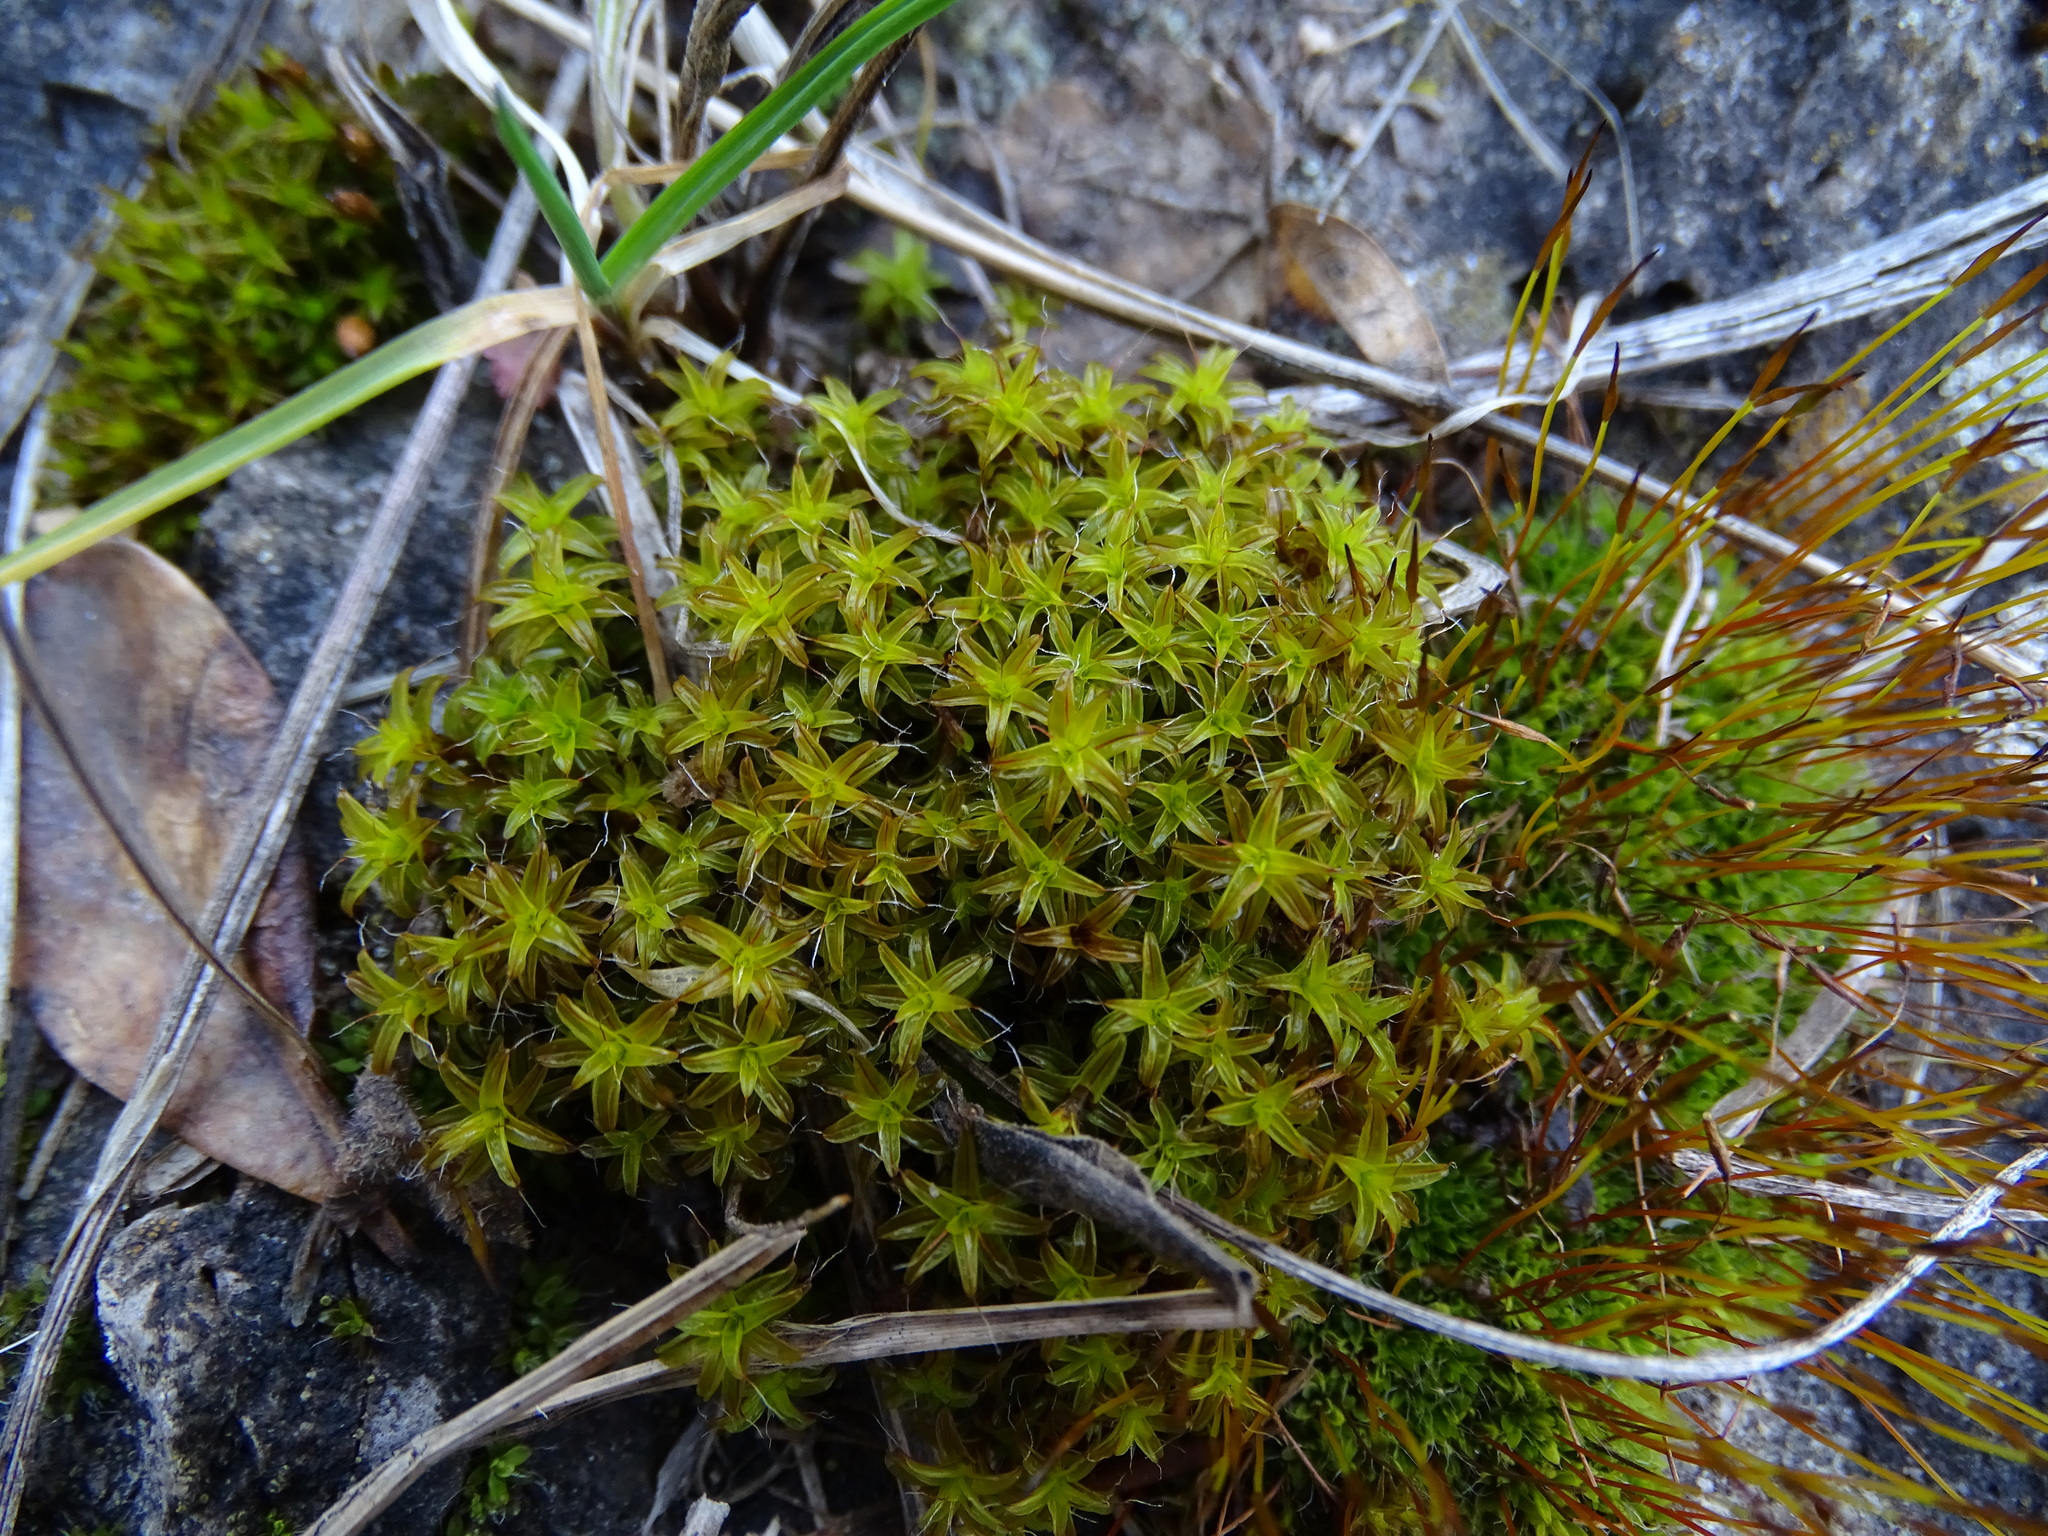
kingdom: Plantae
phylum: Bryophyta
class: Bryopsida
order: Pottiales
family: Pottiaceae
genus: Syntrichia
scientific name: Syntrichia ruralis
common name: Sidewalk screw moss
